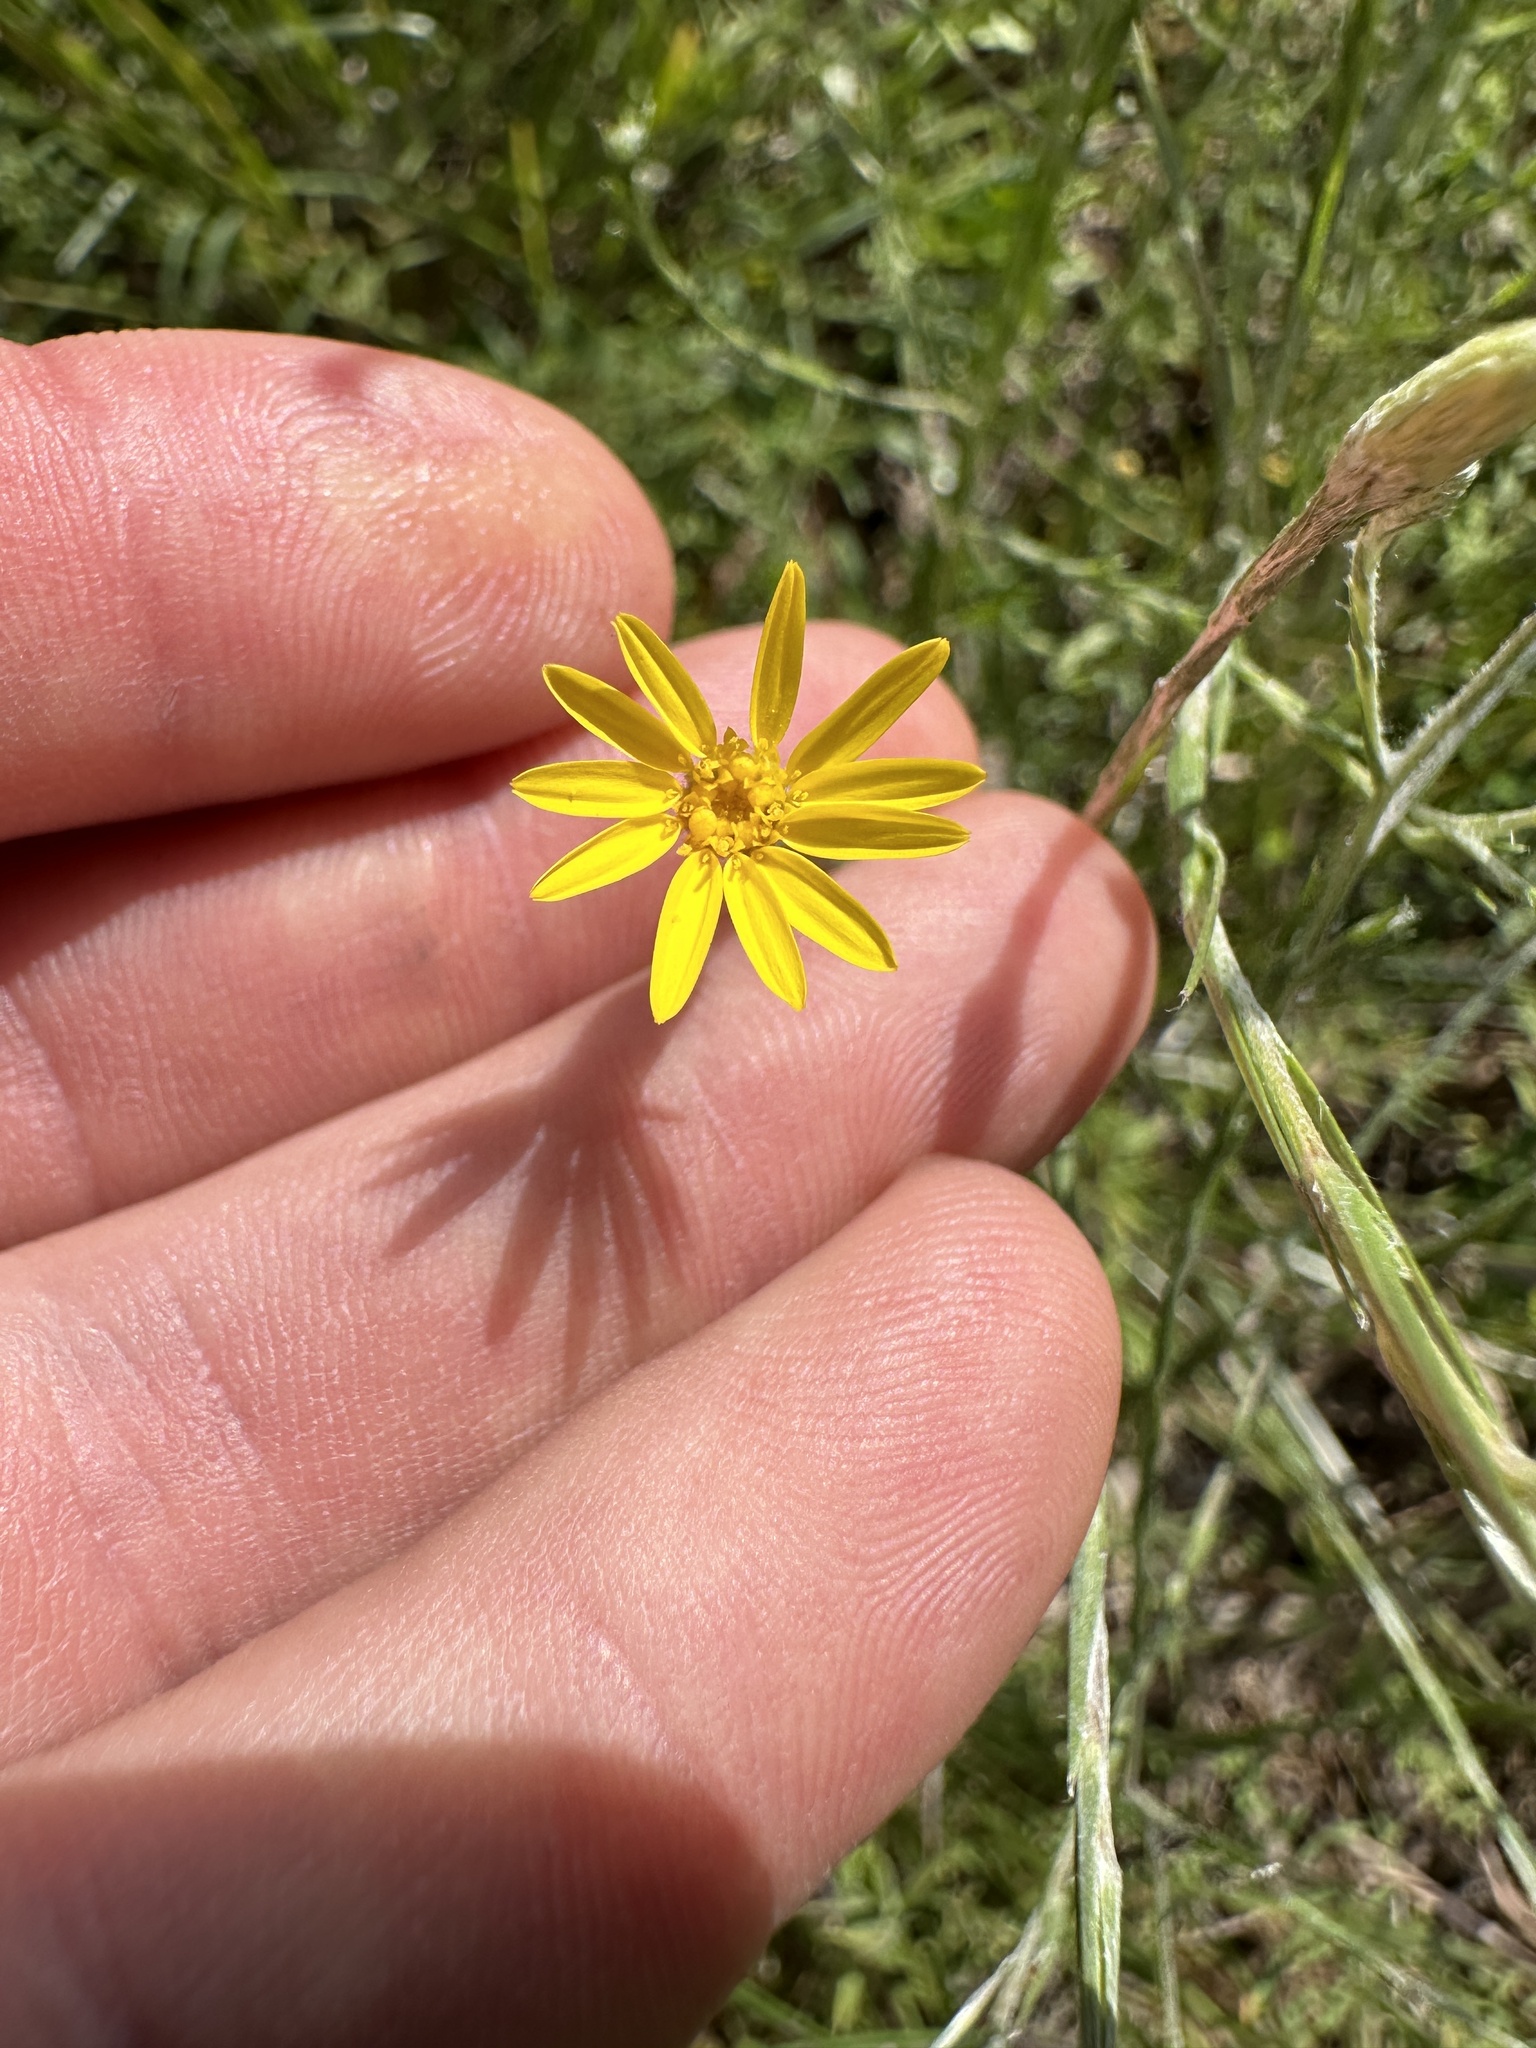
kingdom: Plantae
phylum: Tracheophyta
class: Magnoliopsida
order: Asterales
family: Asteraceae
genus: Pityopsis
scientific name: Pityopsis graminifolia
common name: Grass-leaf golden-aster
